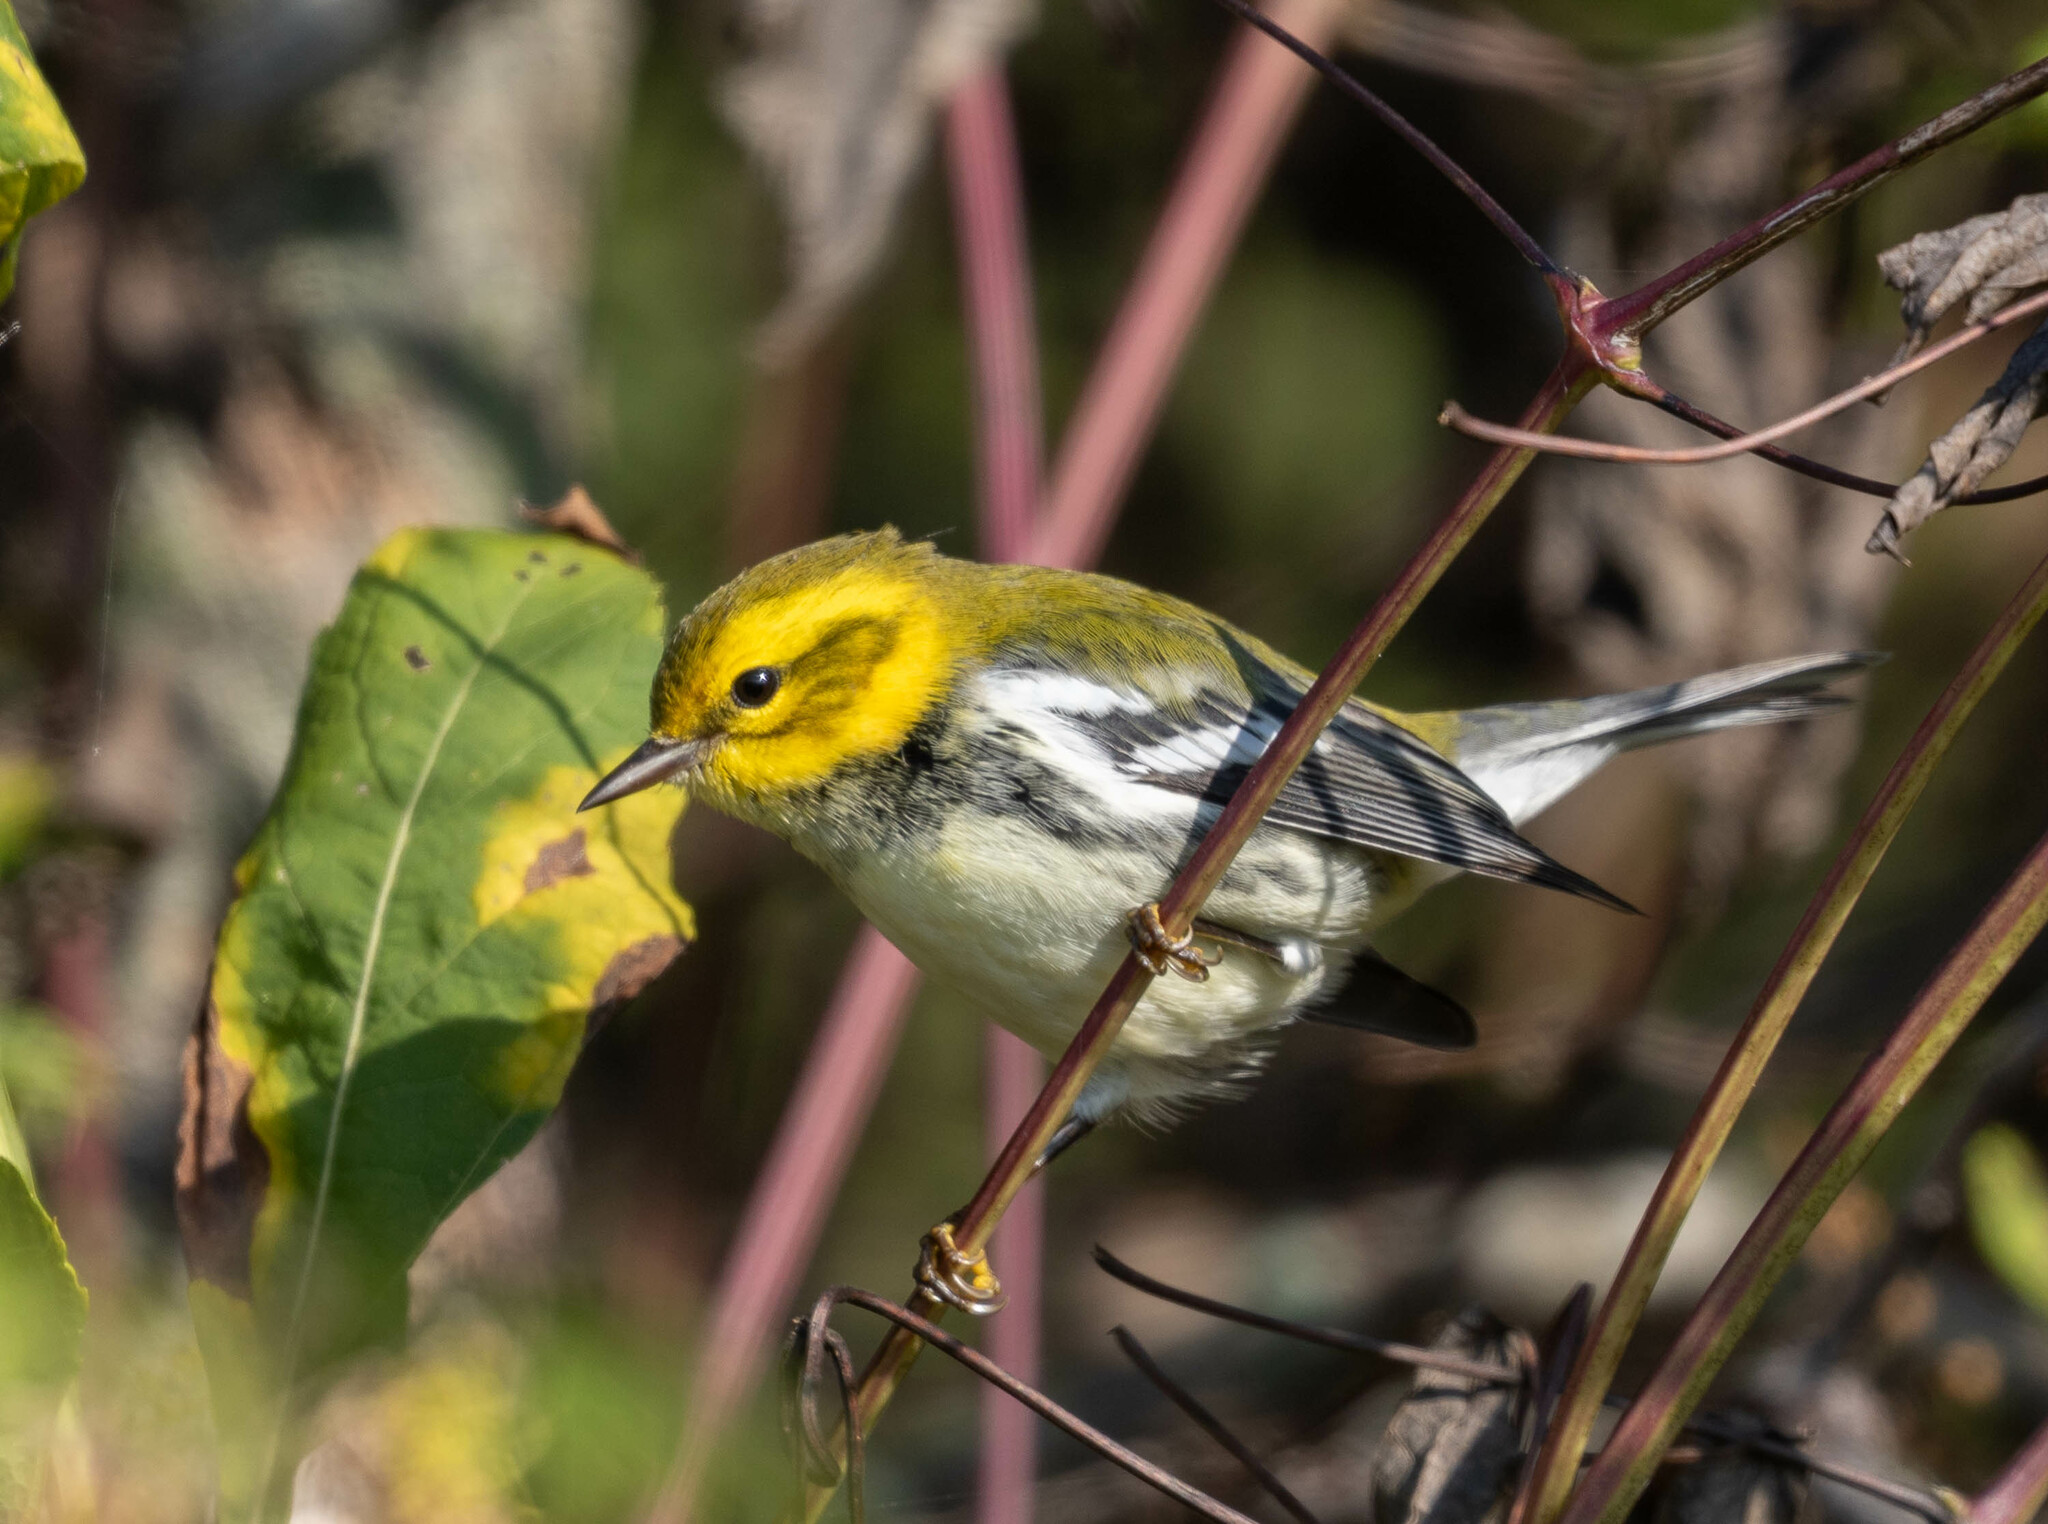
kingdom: Animalia
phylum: Chordata
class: Aves
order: Passeriformes
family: Parulidae
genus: Setophaga
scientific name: Setophaga virens
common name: Black-throated green warbler
